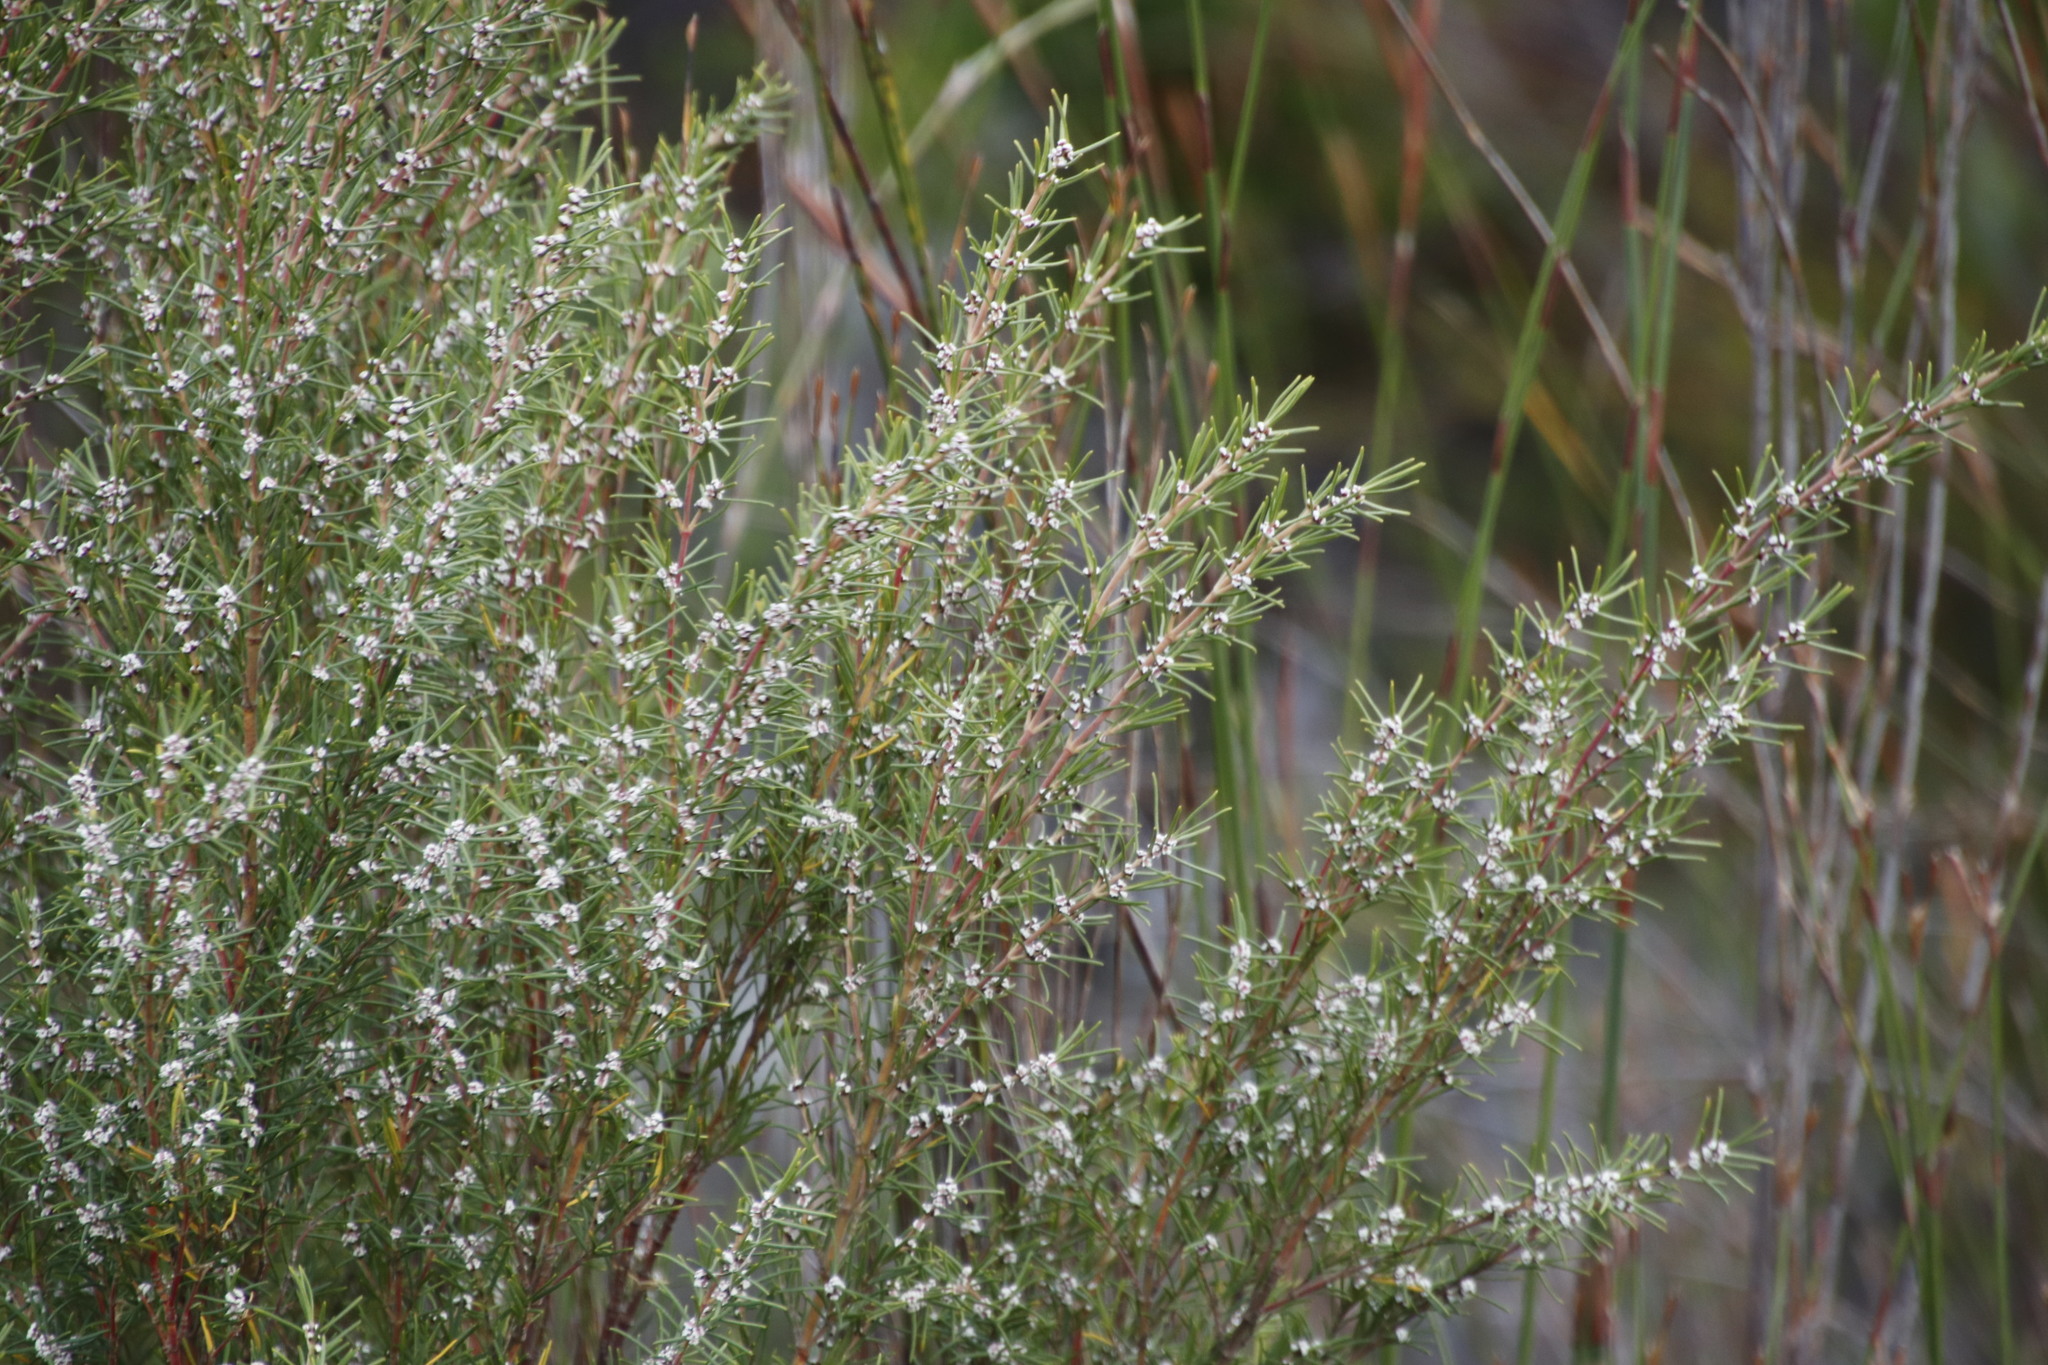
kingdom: Plantae
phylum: Tracheophyta
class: Magnoliopsida
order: Cornales
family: Grubbiaceae
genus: Grubbia
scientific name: Grubbia rosmarinifolia
